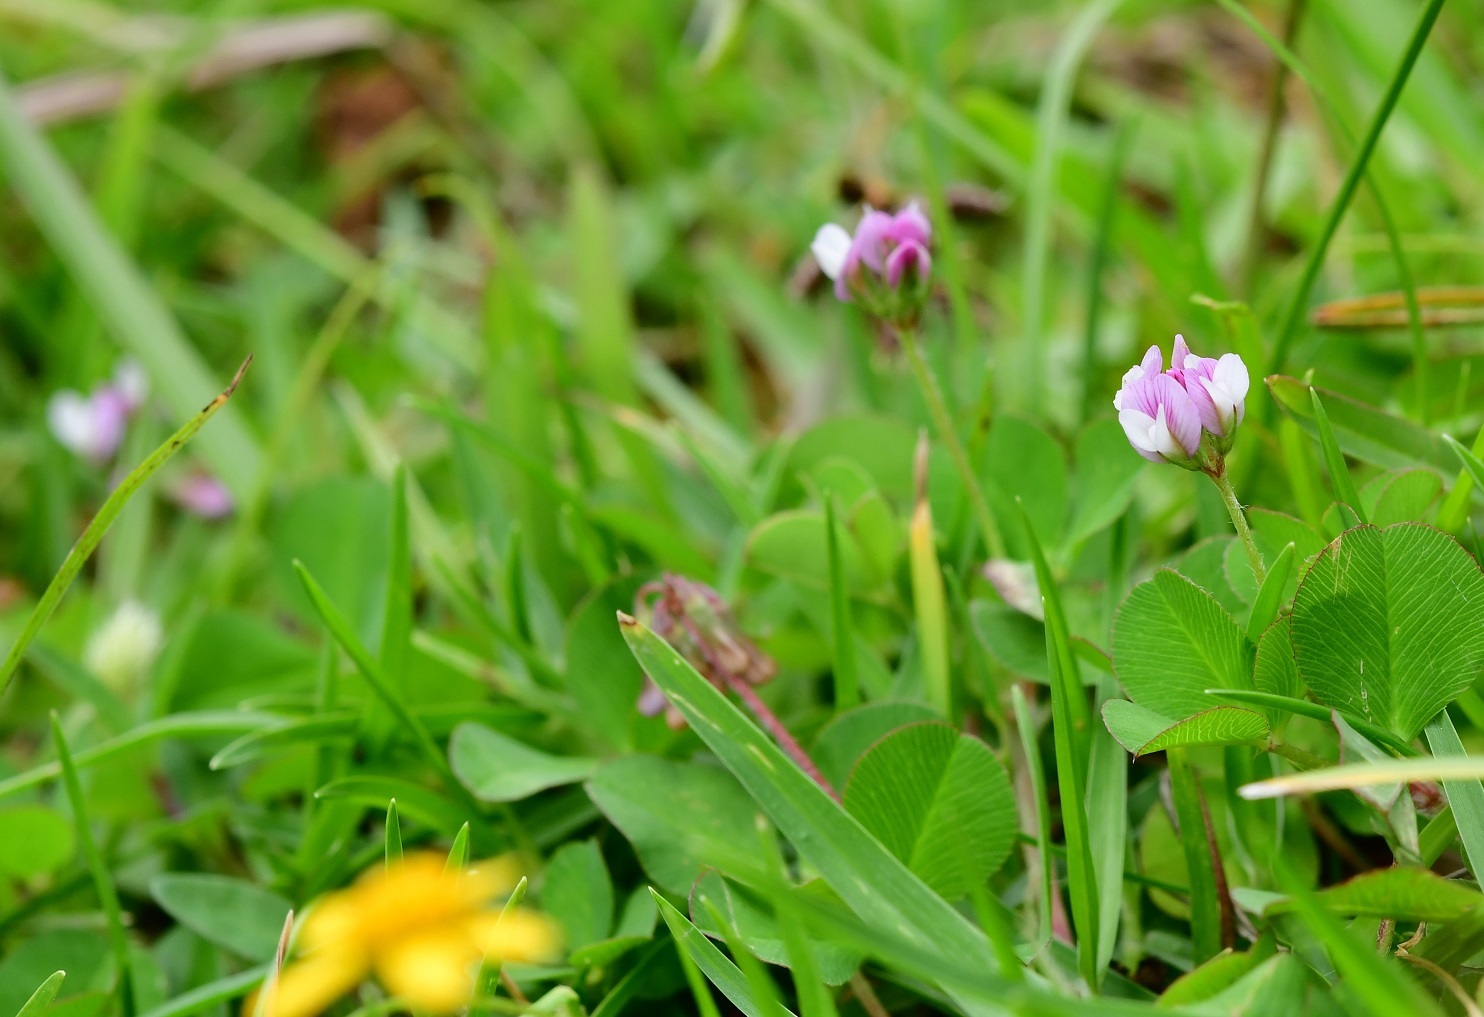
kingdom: Plantae
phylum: Tracheophyta
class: Magnoliopsida
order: Fabales
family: Fabaceae
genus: Trifolium
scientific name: Trifolium amabile
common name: Aztec clover
